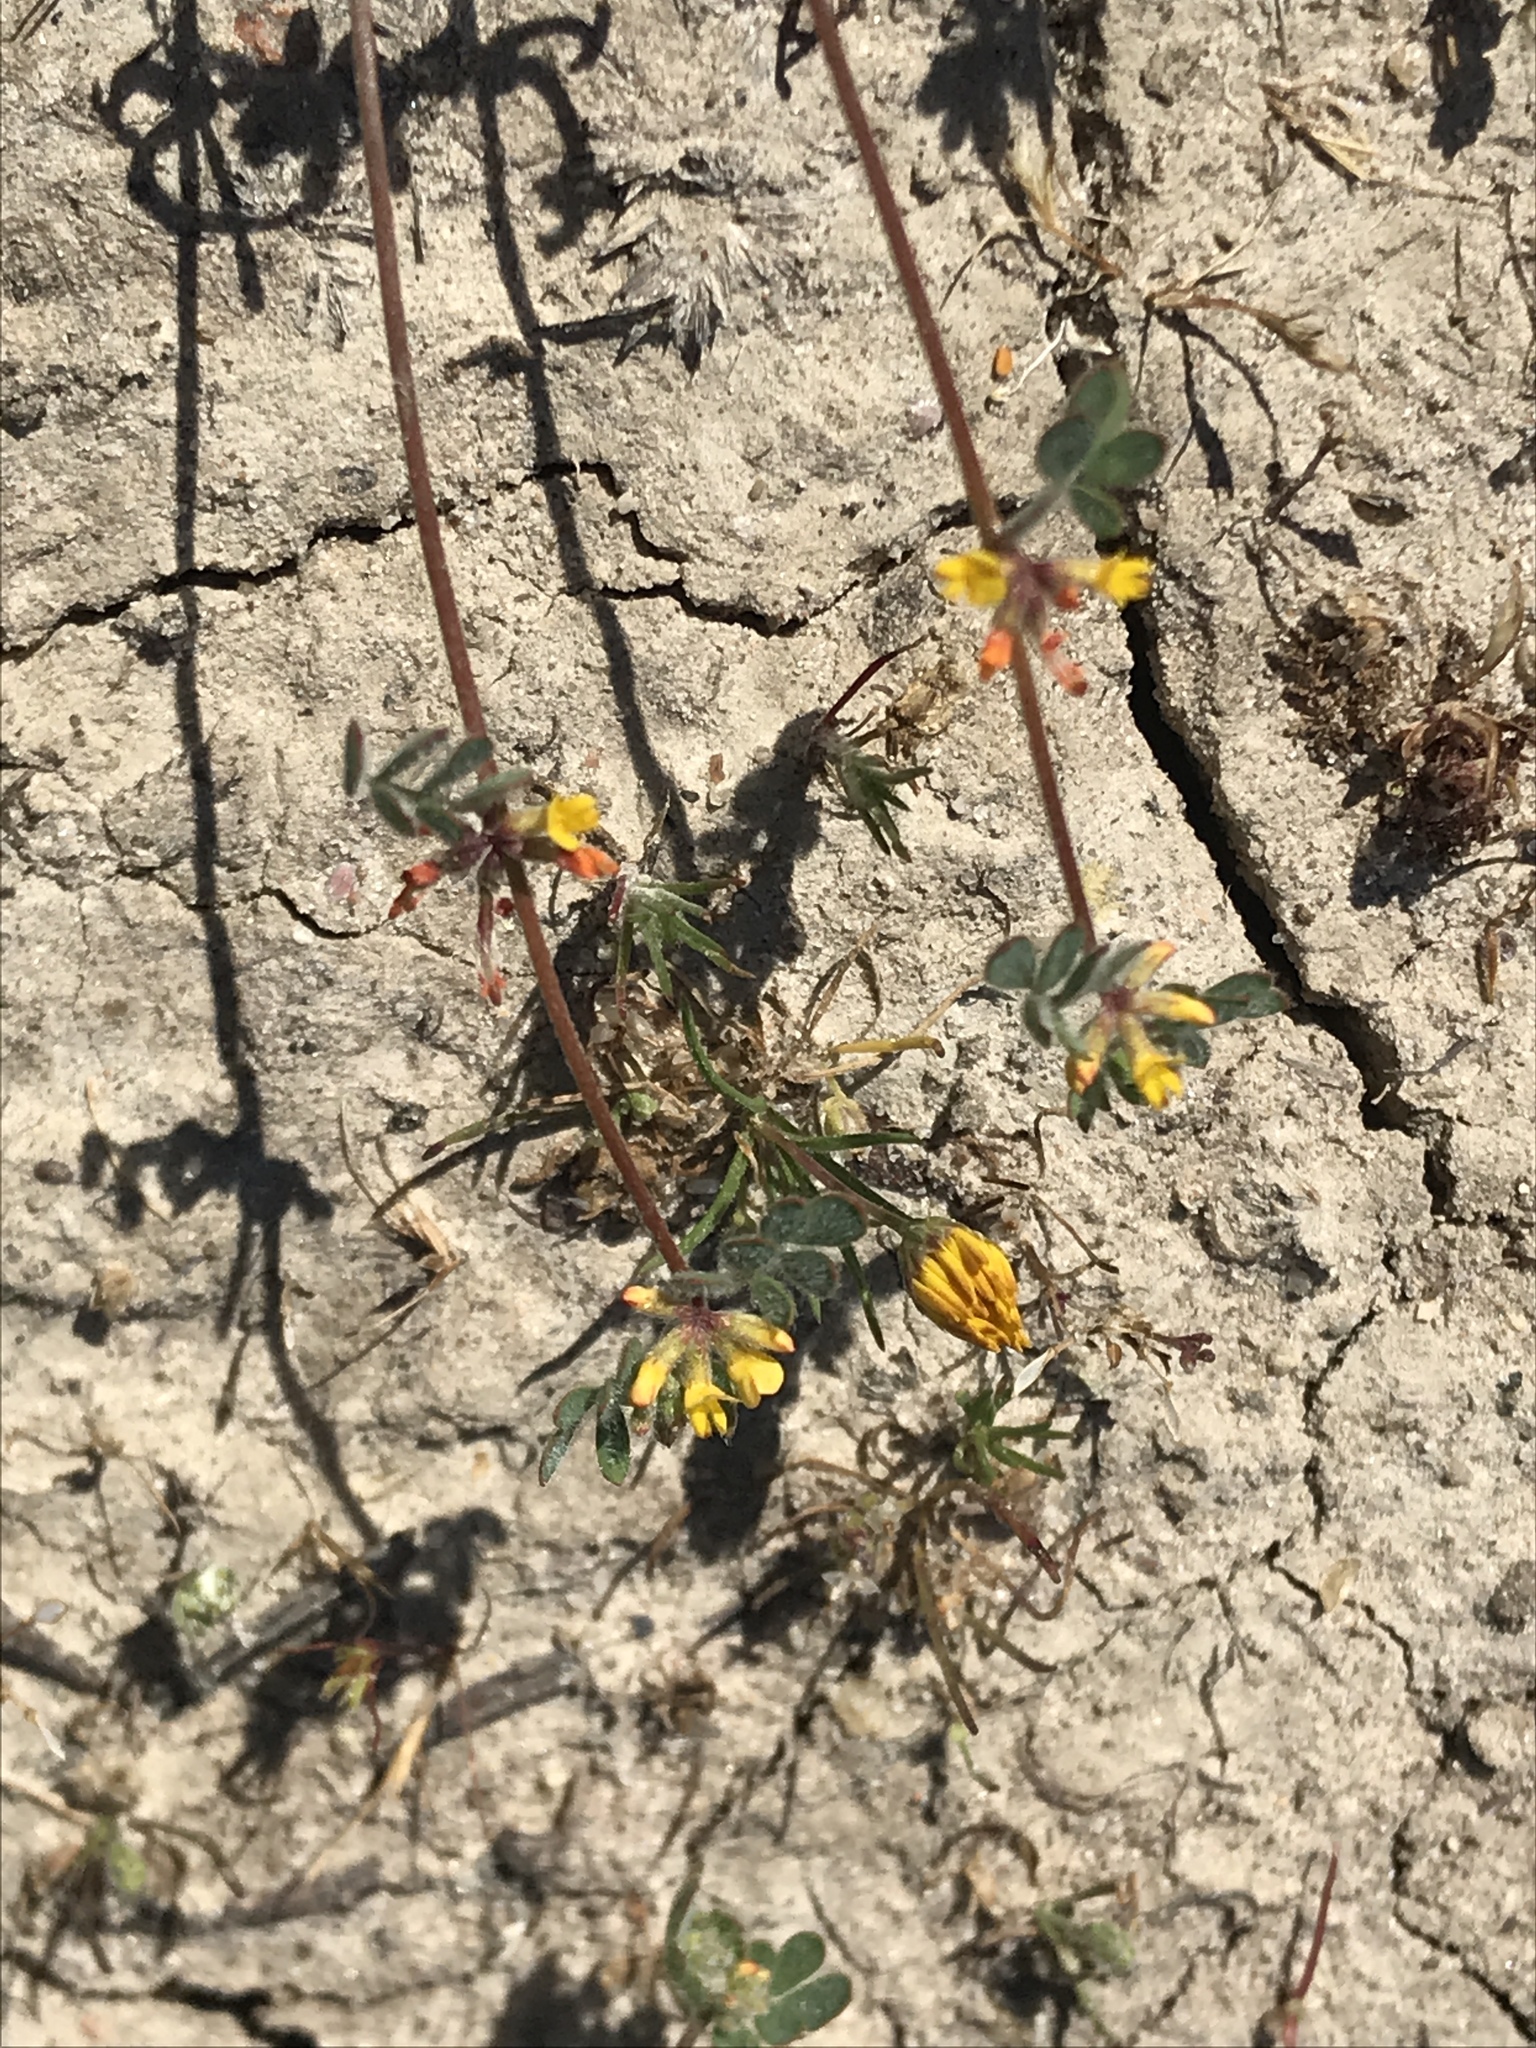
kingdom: Plantae
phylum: Tracheophyta
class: Magnoliopsida
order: Fabales
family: Fabaceae
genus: Acmispon
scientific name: Acmispon micranthus
